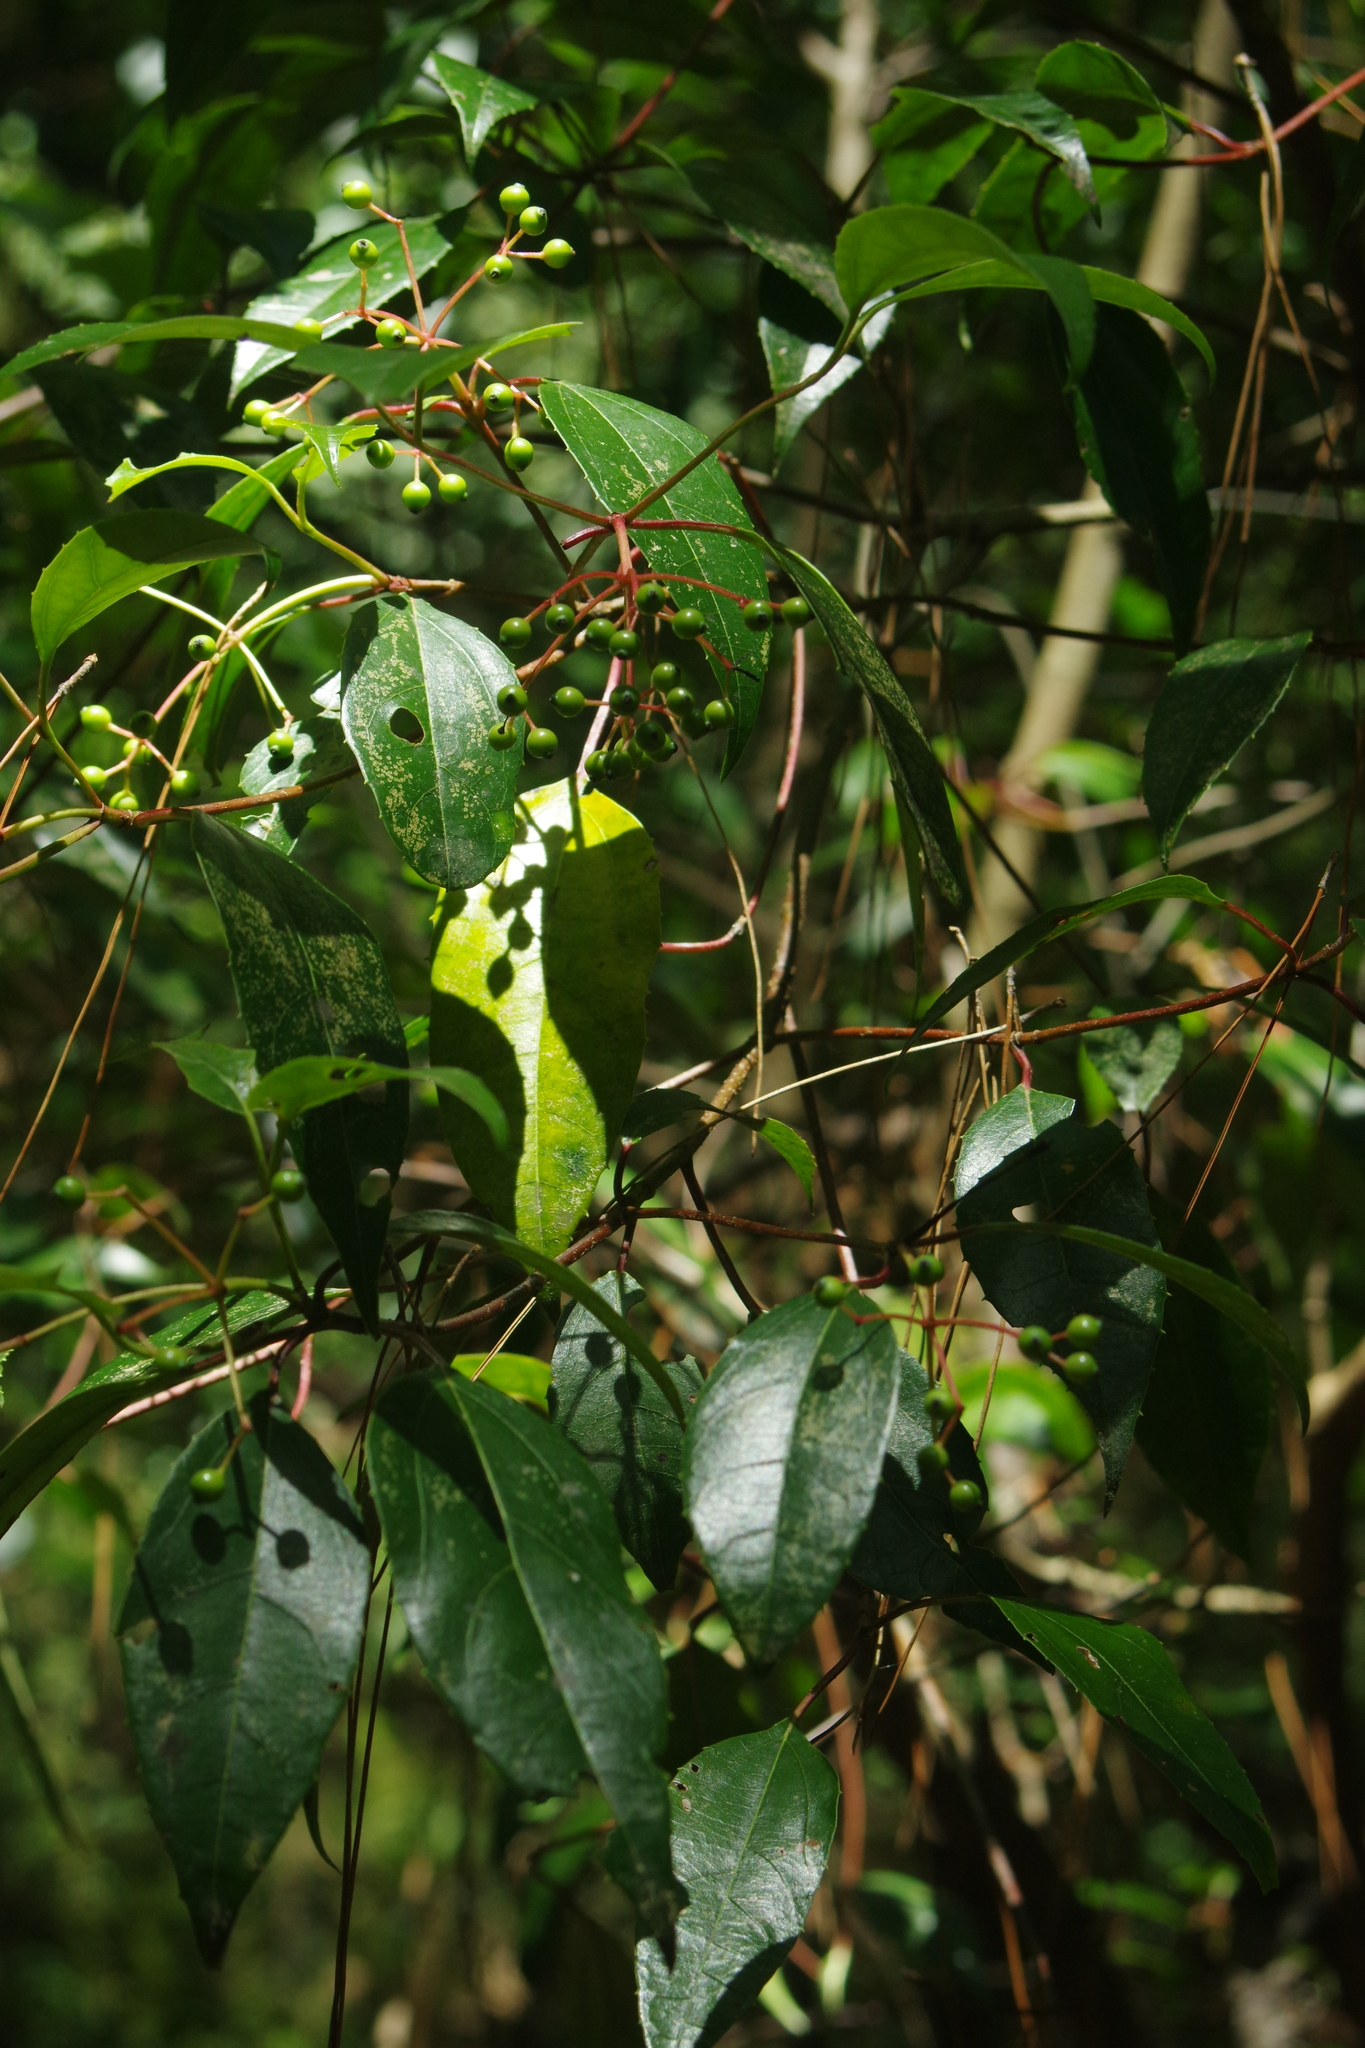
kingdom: Plantae
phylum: Tracheophyta
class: Magnoliopsida
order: Dipsacales
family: Viburnaceae
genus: Viburnum
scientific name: Viburnum propinquum
